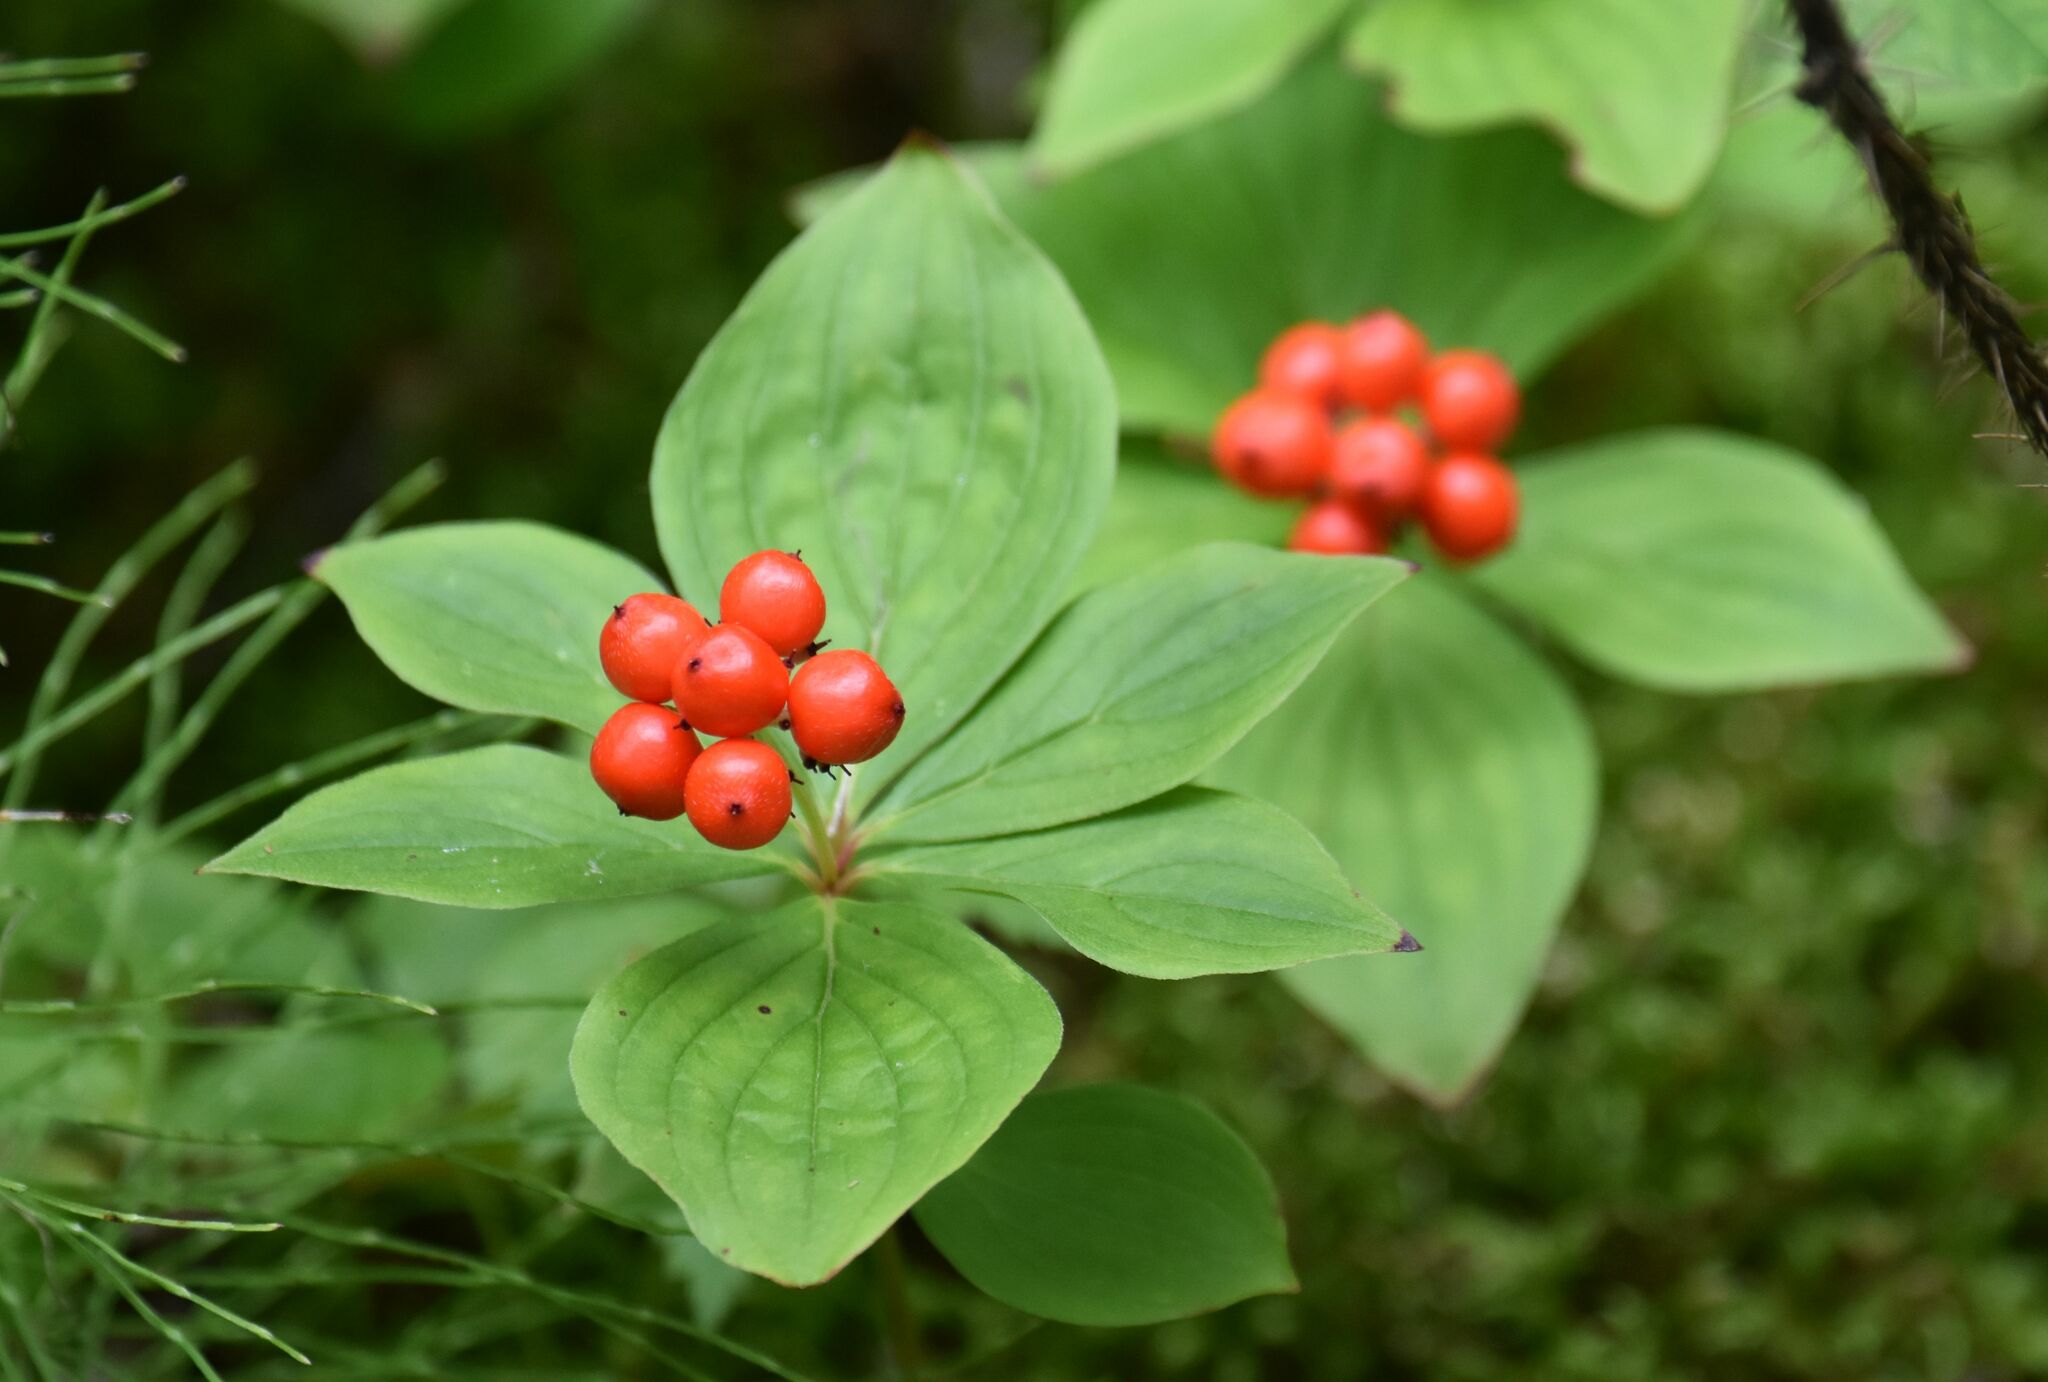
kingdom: Plantae
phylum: Tracheophyta
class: Magnoliopsida
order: Cornales
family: Cornaceae
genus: Cornus
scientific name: Cornus canadensis
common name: Creeping dogwood
